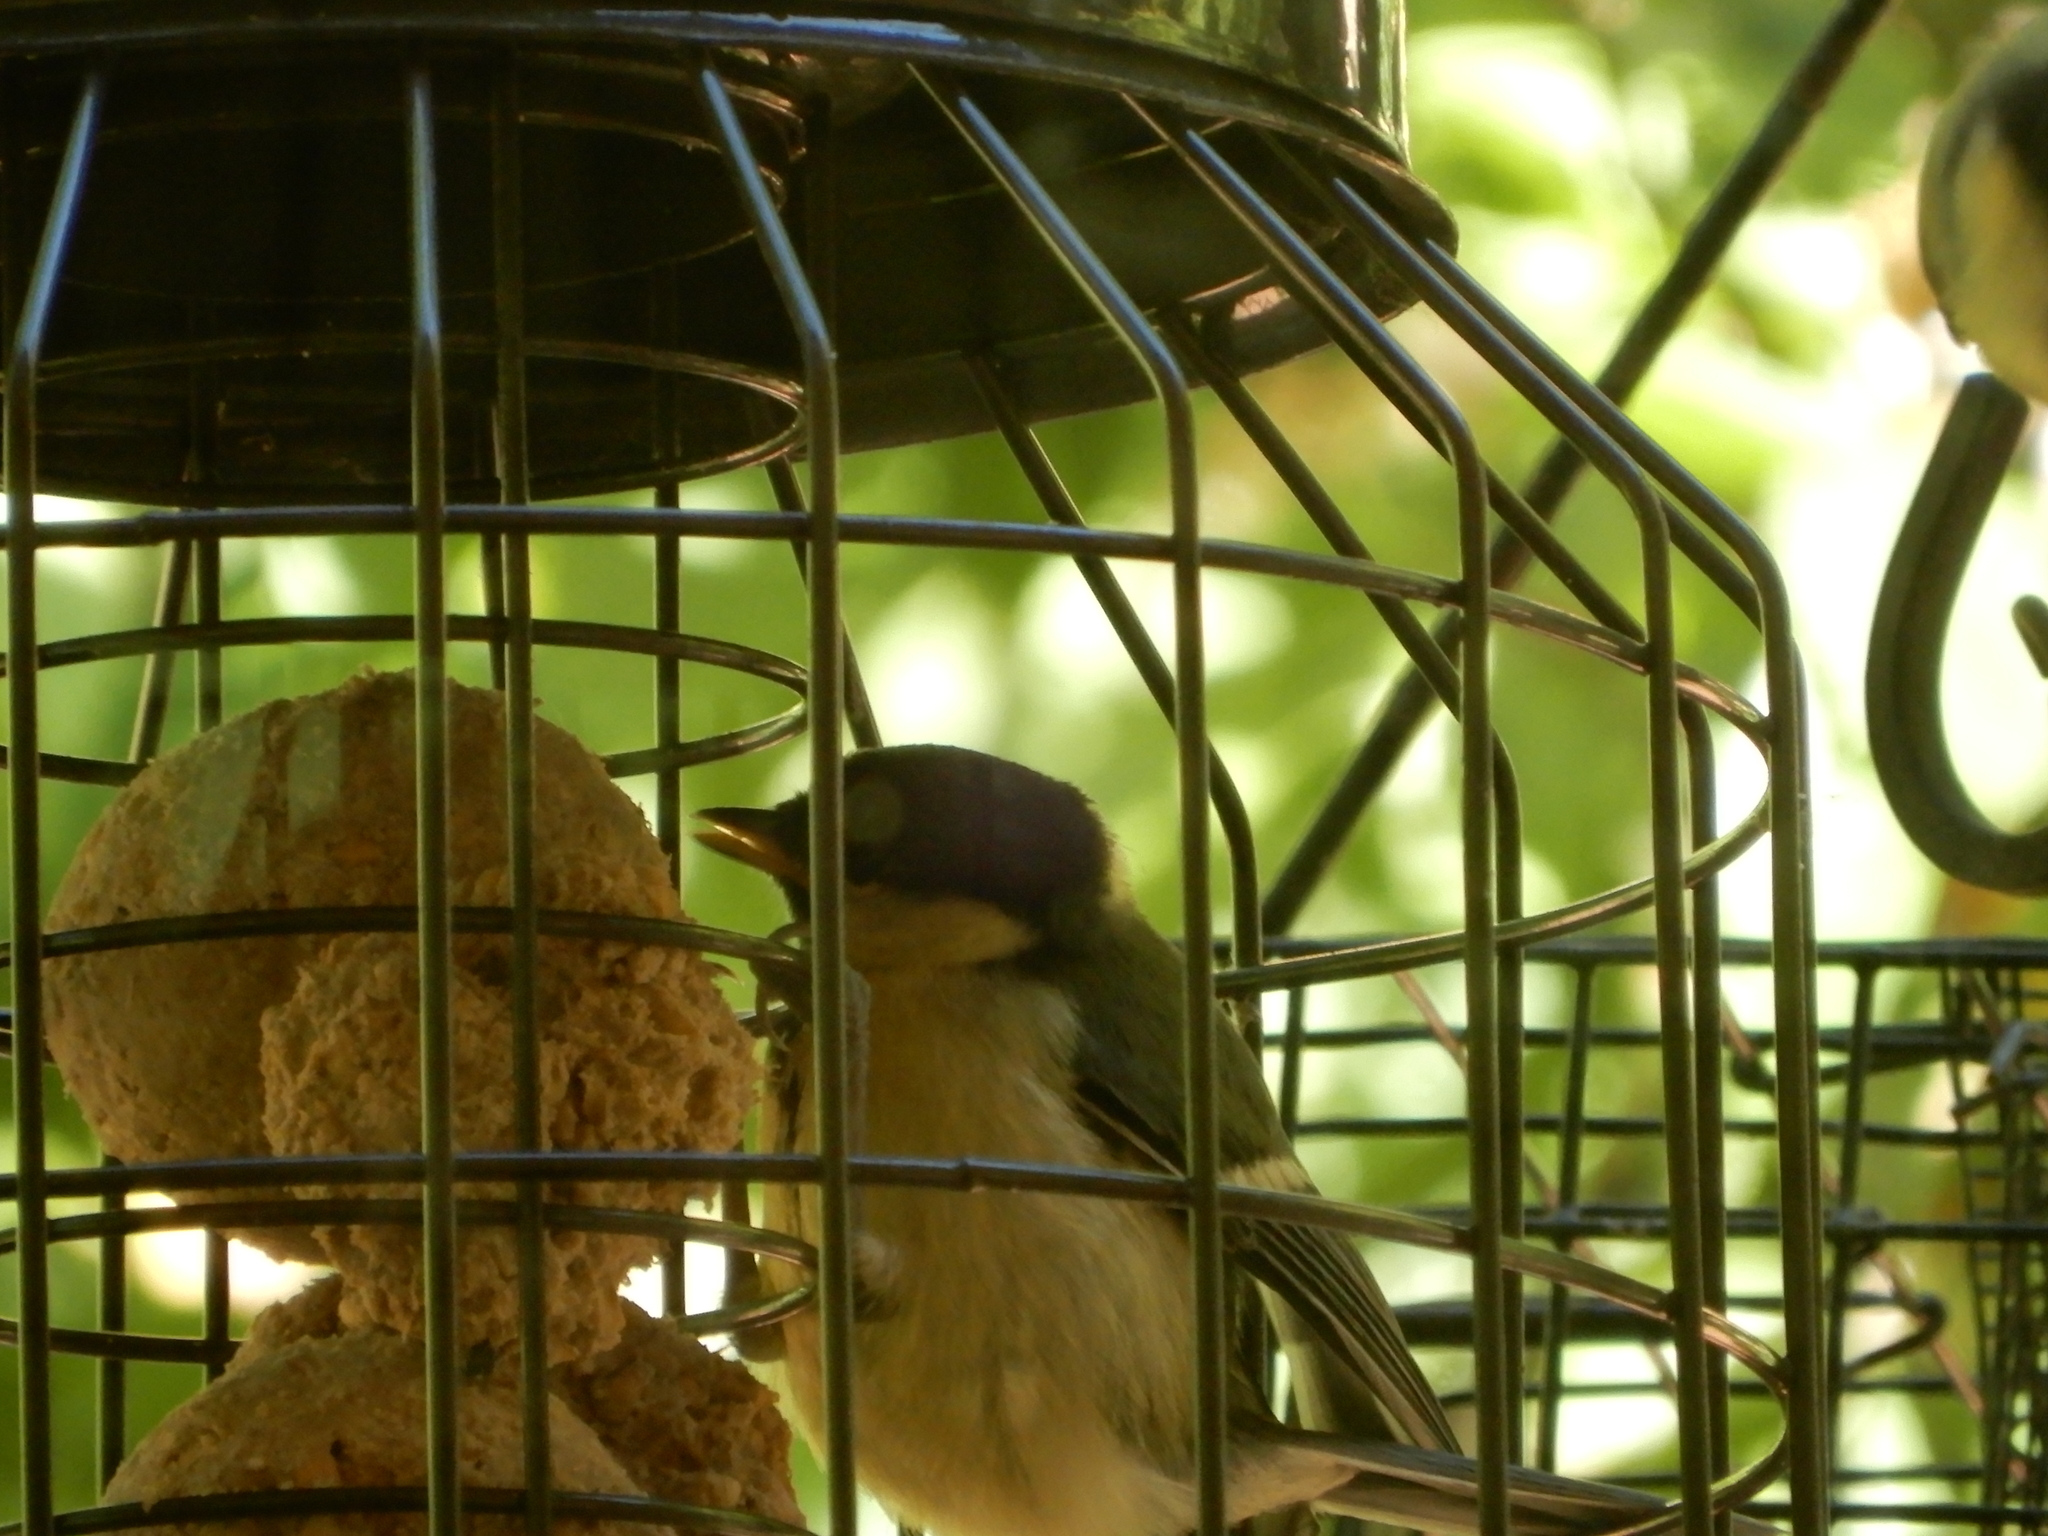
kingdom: Animalia
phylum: Chordata
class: Aves
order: Passeriformes
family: Paridae
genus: Parus
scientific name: Parus major
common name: Great tit
